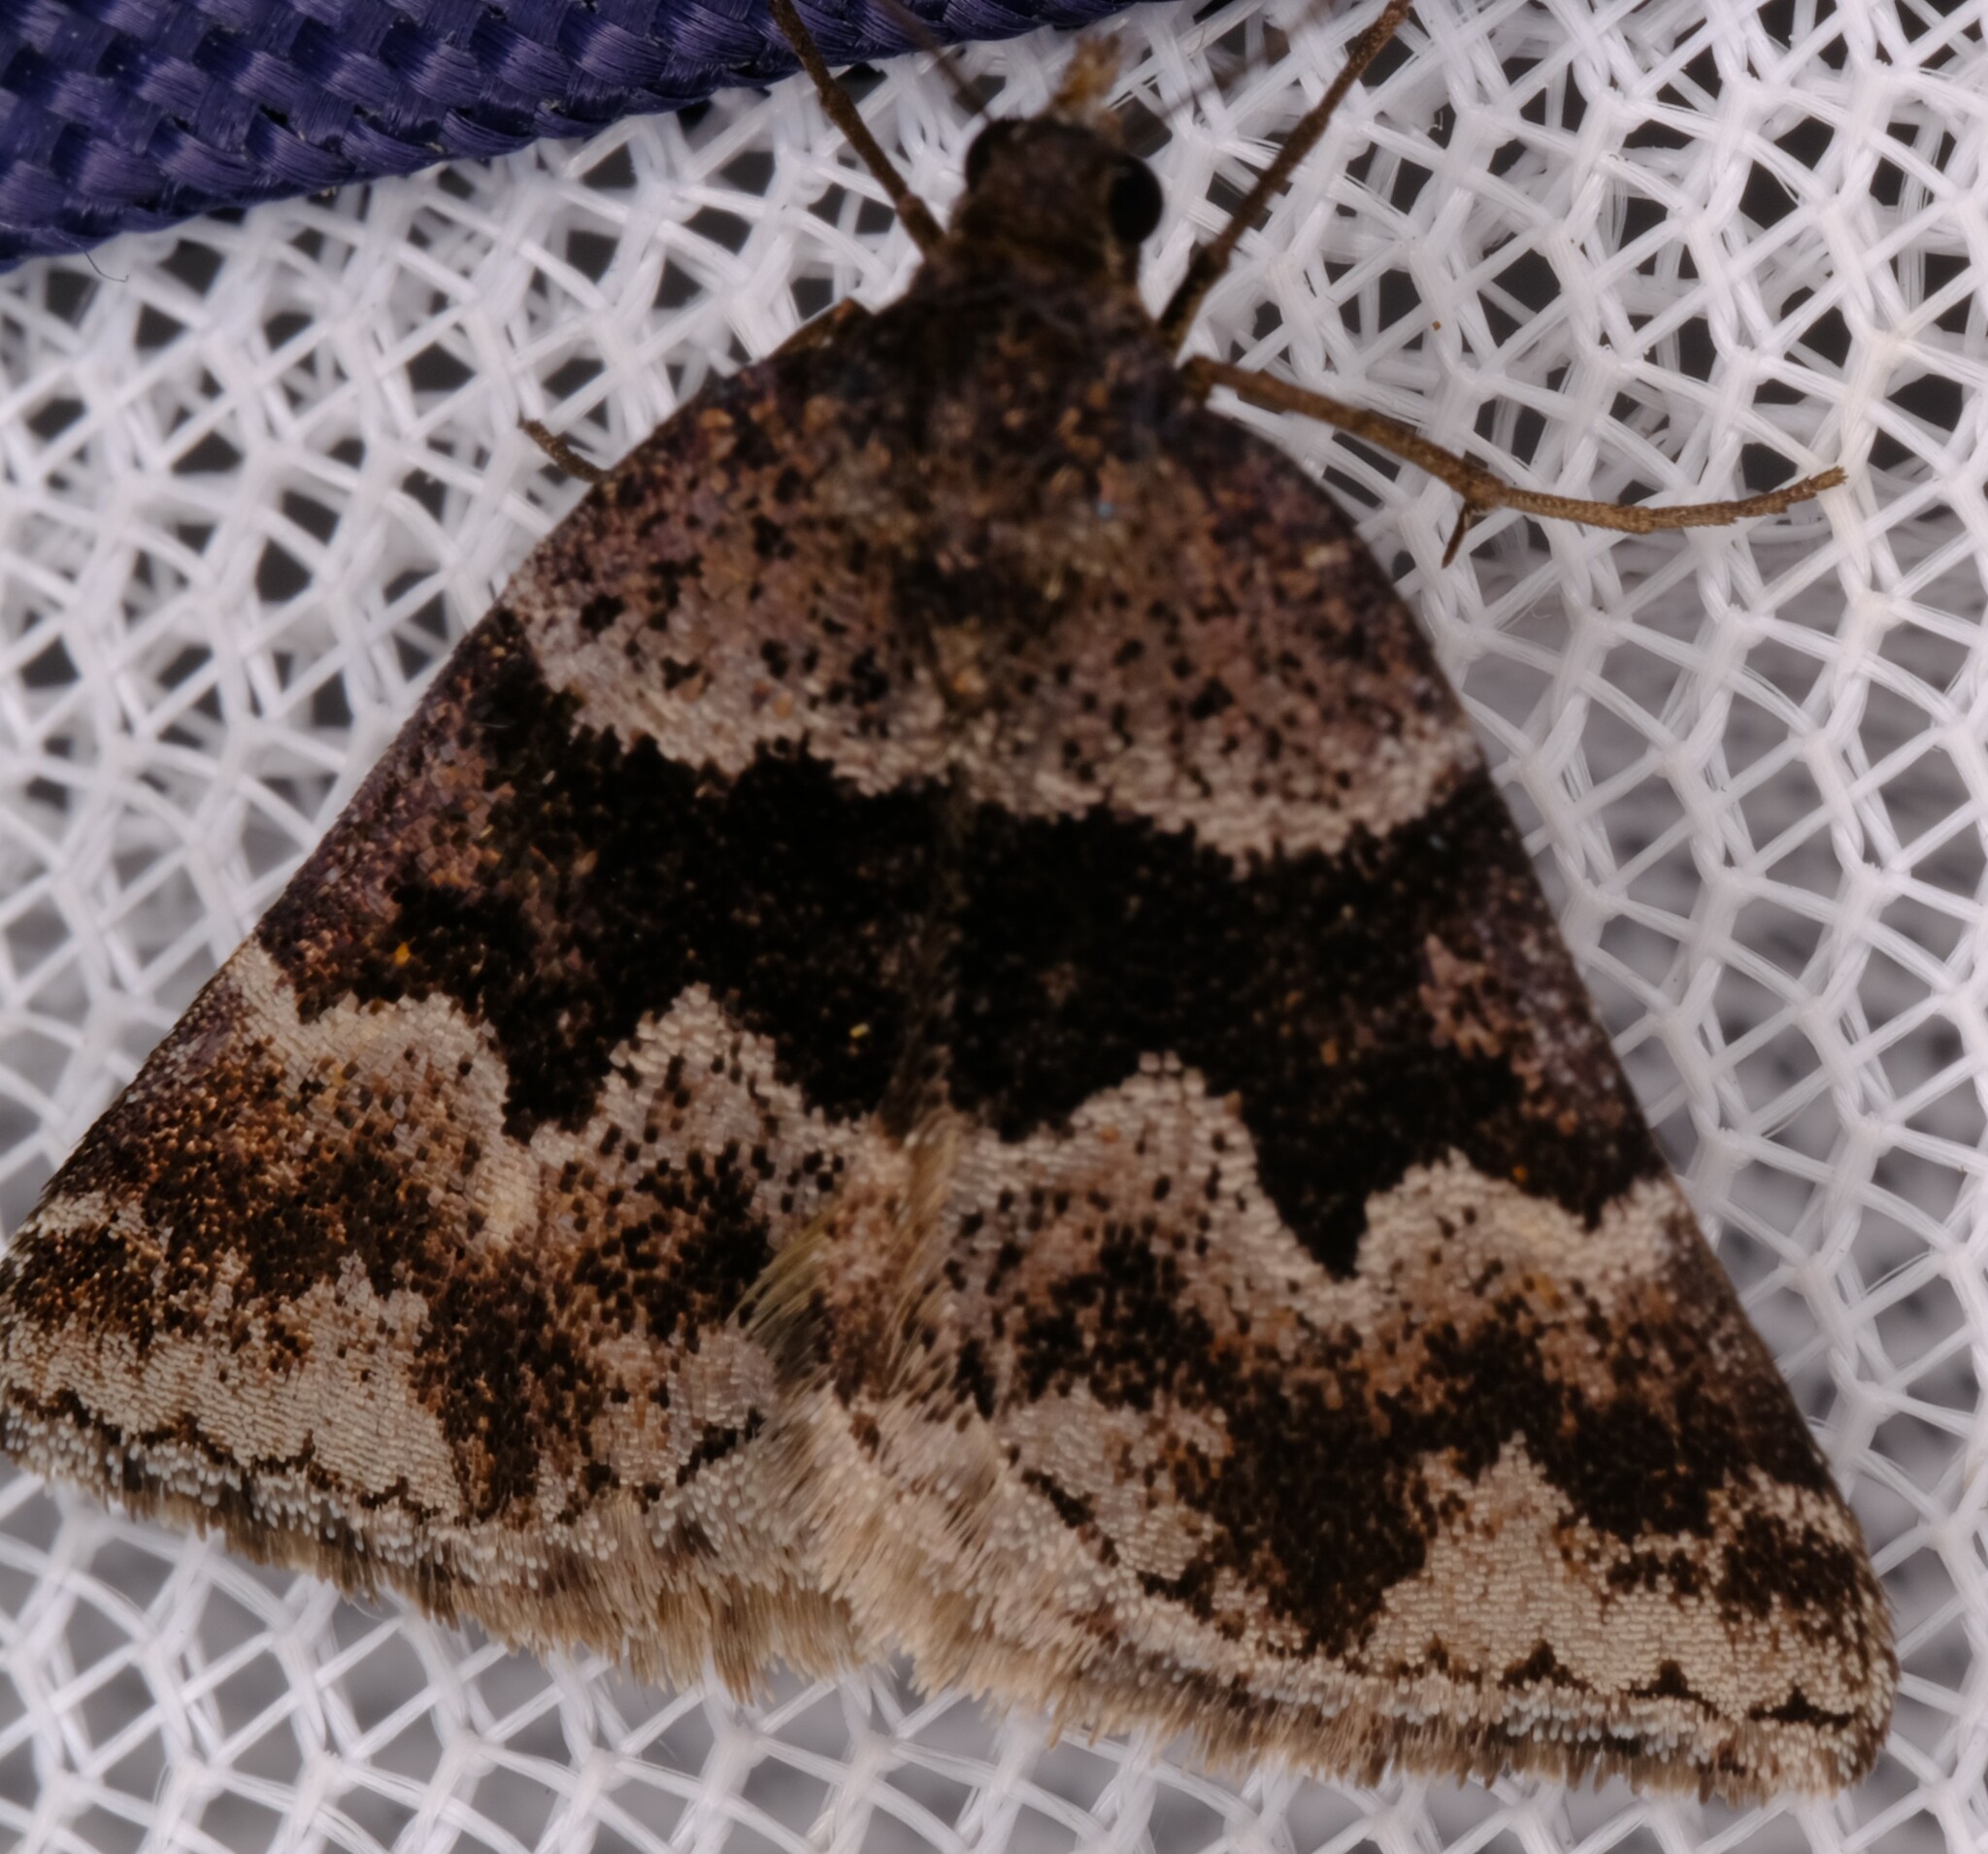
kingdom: Animalia
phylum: Arthropoda
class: Insecta
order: Lepidoptera
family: Geometridae
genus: Dichromodes
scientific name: Dichromodes ainaria
